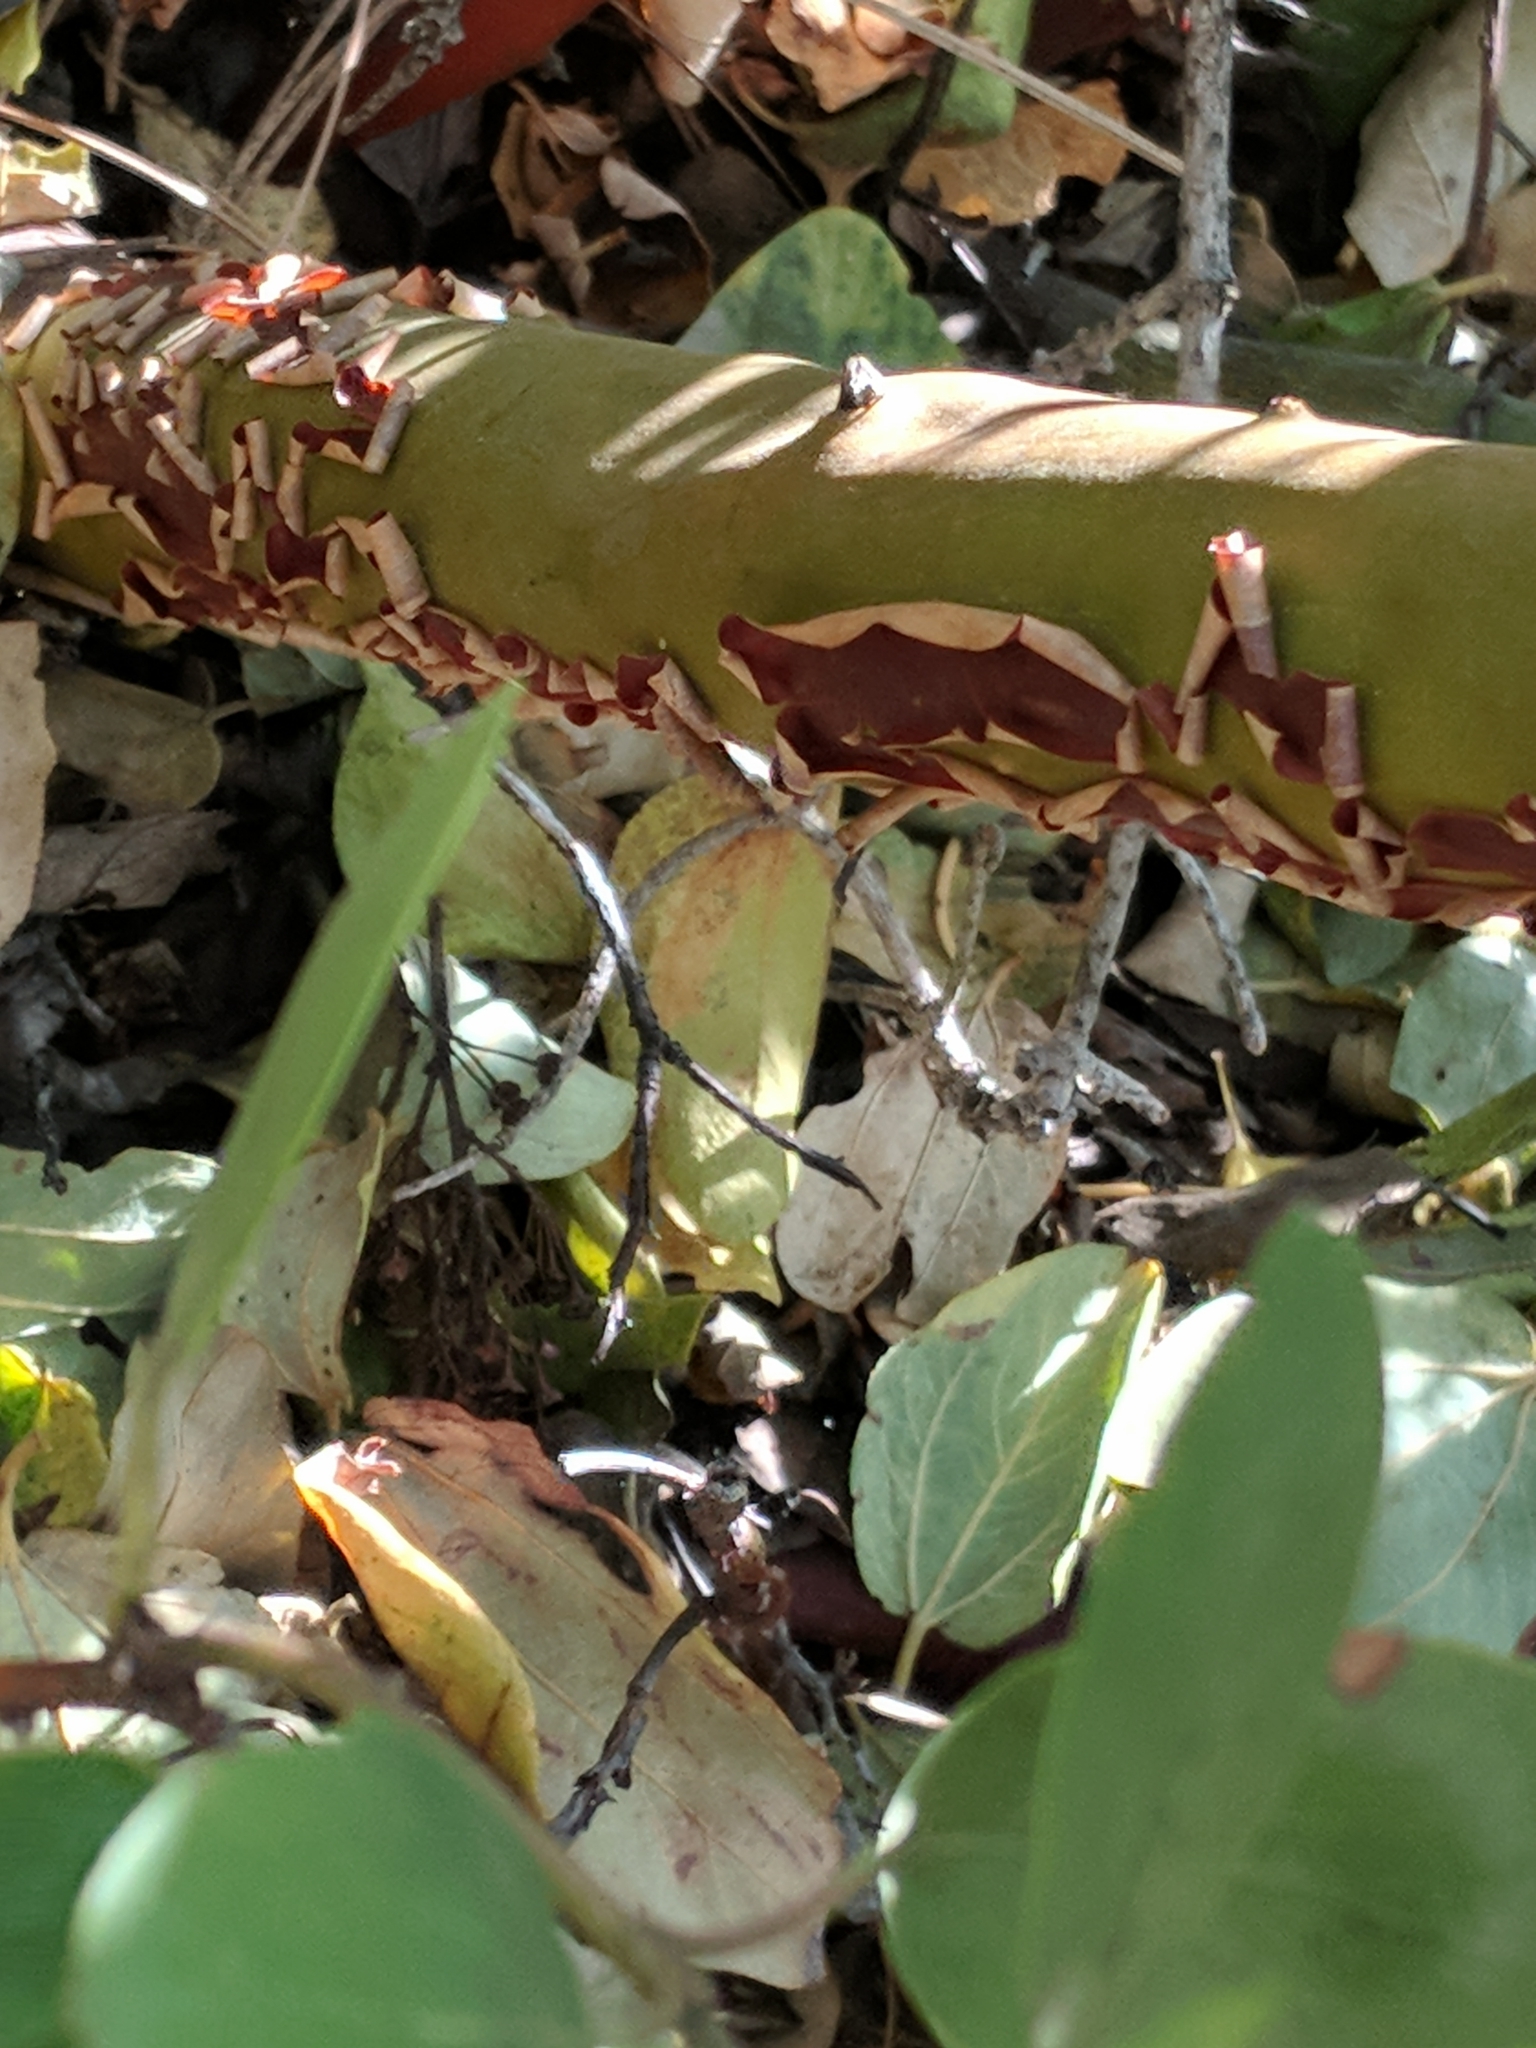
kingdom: Plantae
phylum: Tracheophyta
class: Magnoliopsida
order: Ericales
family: Ericaceae
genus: Arctostaphylos
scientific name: Arctostaphylos patula
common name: Green-leaf manzanita
